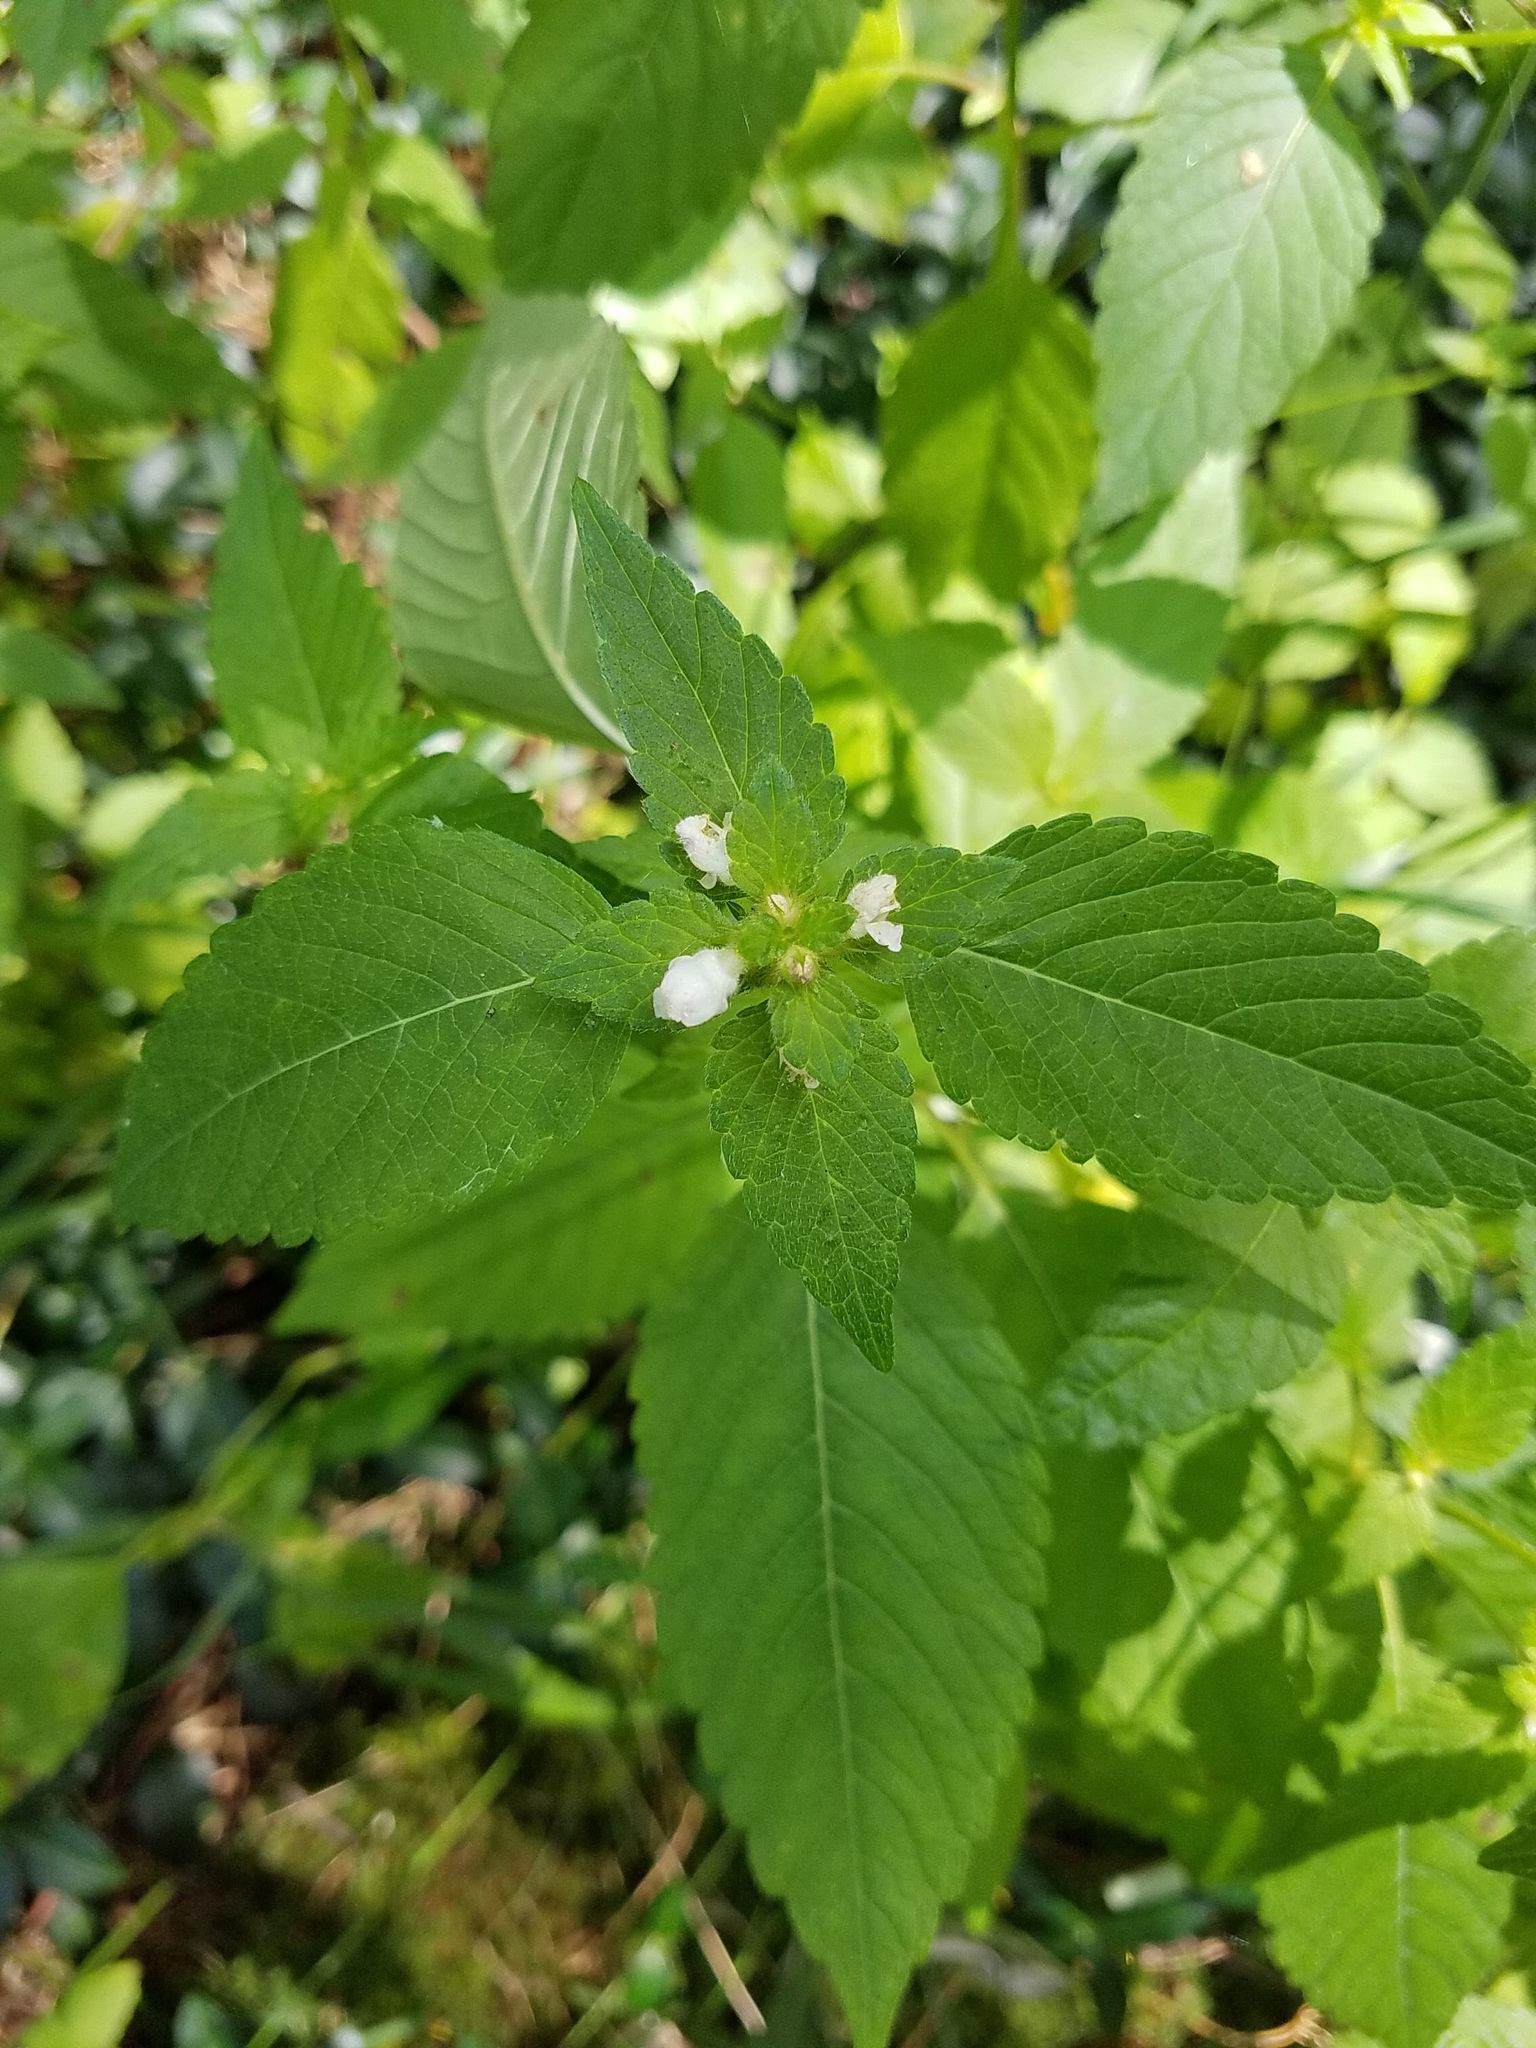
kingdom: Plantae
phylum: Tracheophyta
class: Magnoliopsida
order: Lamiales
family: Lamiaceae
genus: Galeopsis
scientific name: Galeopsis tetrahit
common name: Common hemp-nettle
